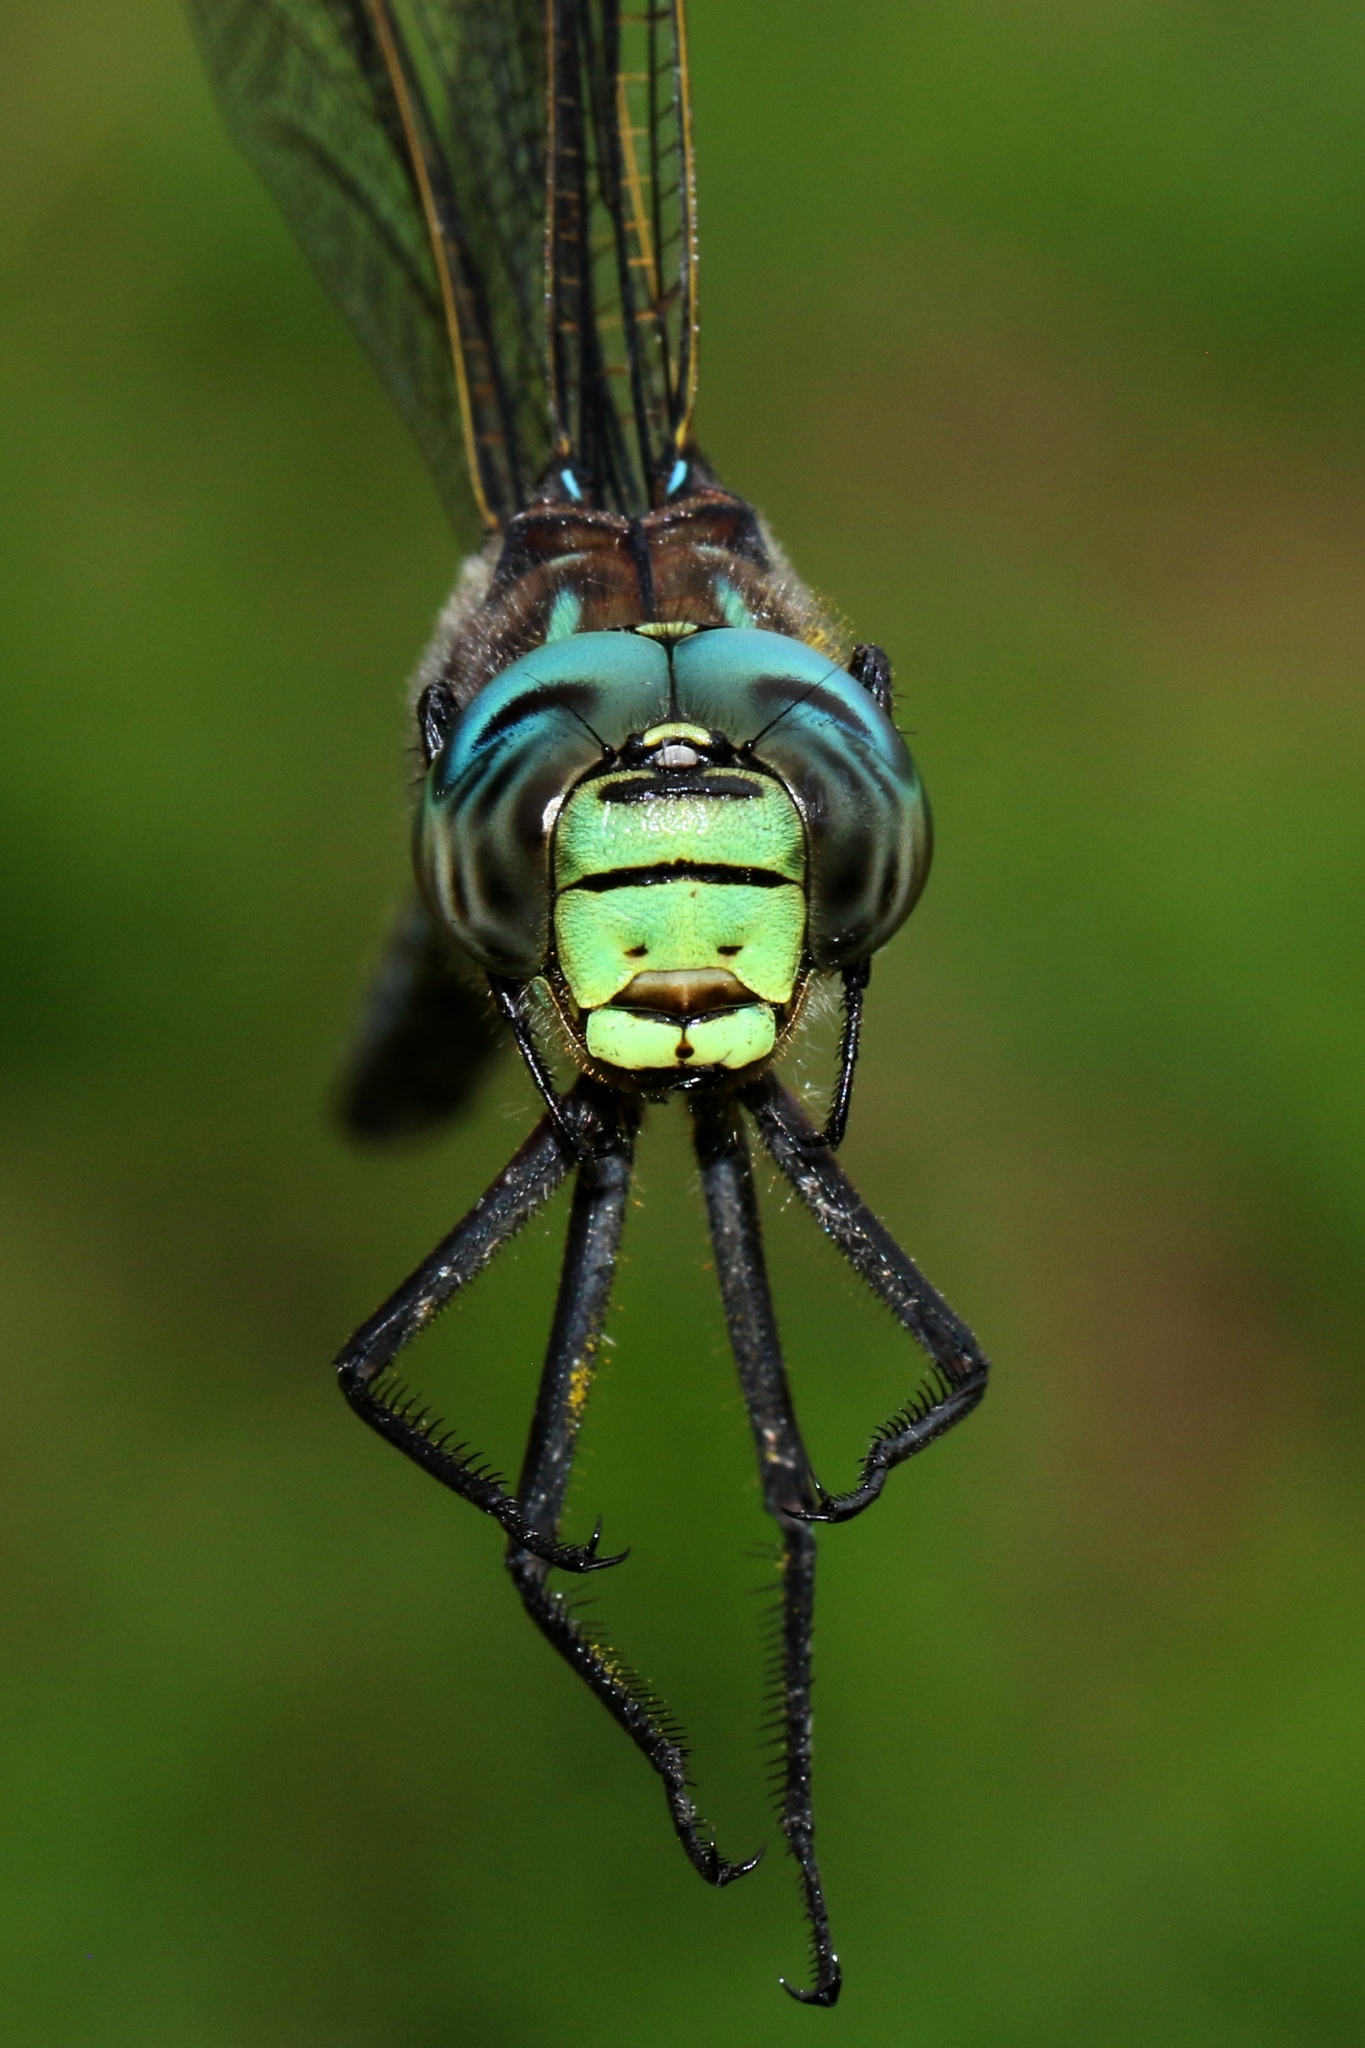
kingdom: Animalia
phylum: Arthropoda
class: Insecta
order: Odonata
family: Aeshnidae
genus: Aeshna
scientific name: Aeshna eremita
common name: Lake darner
